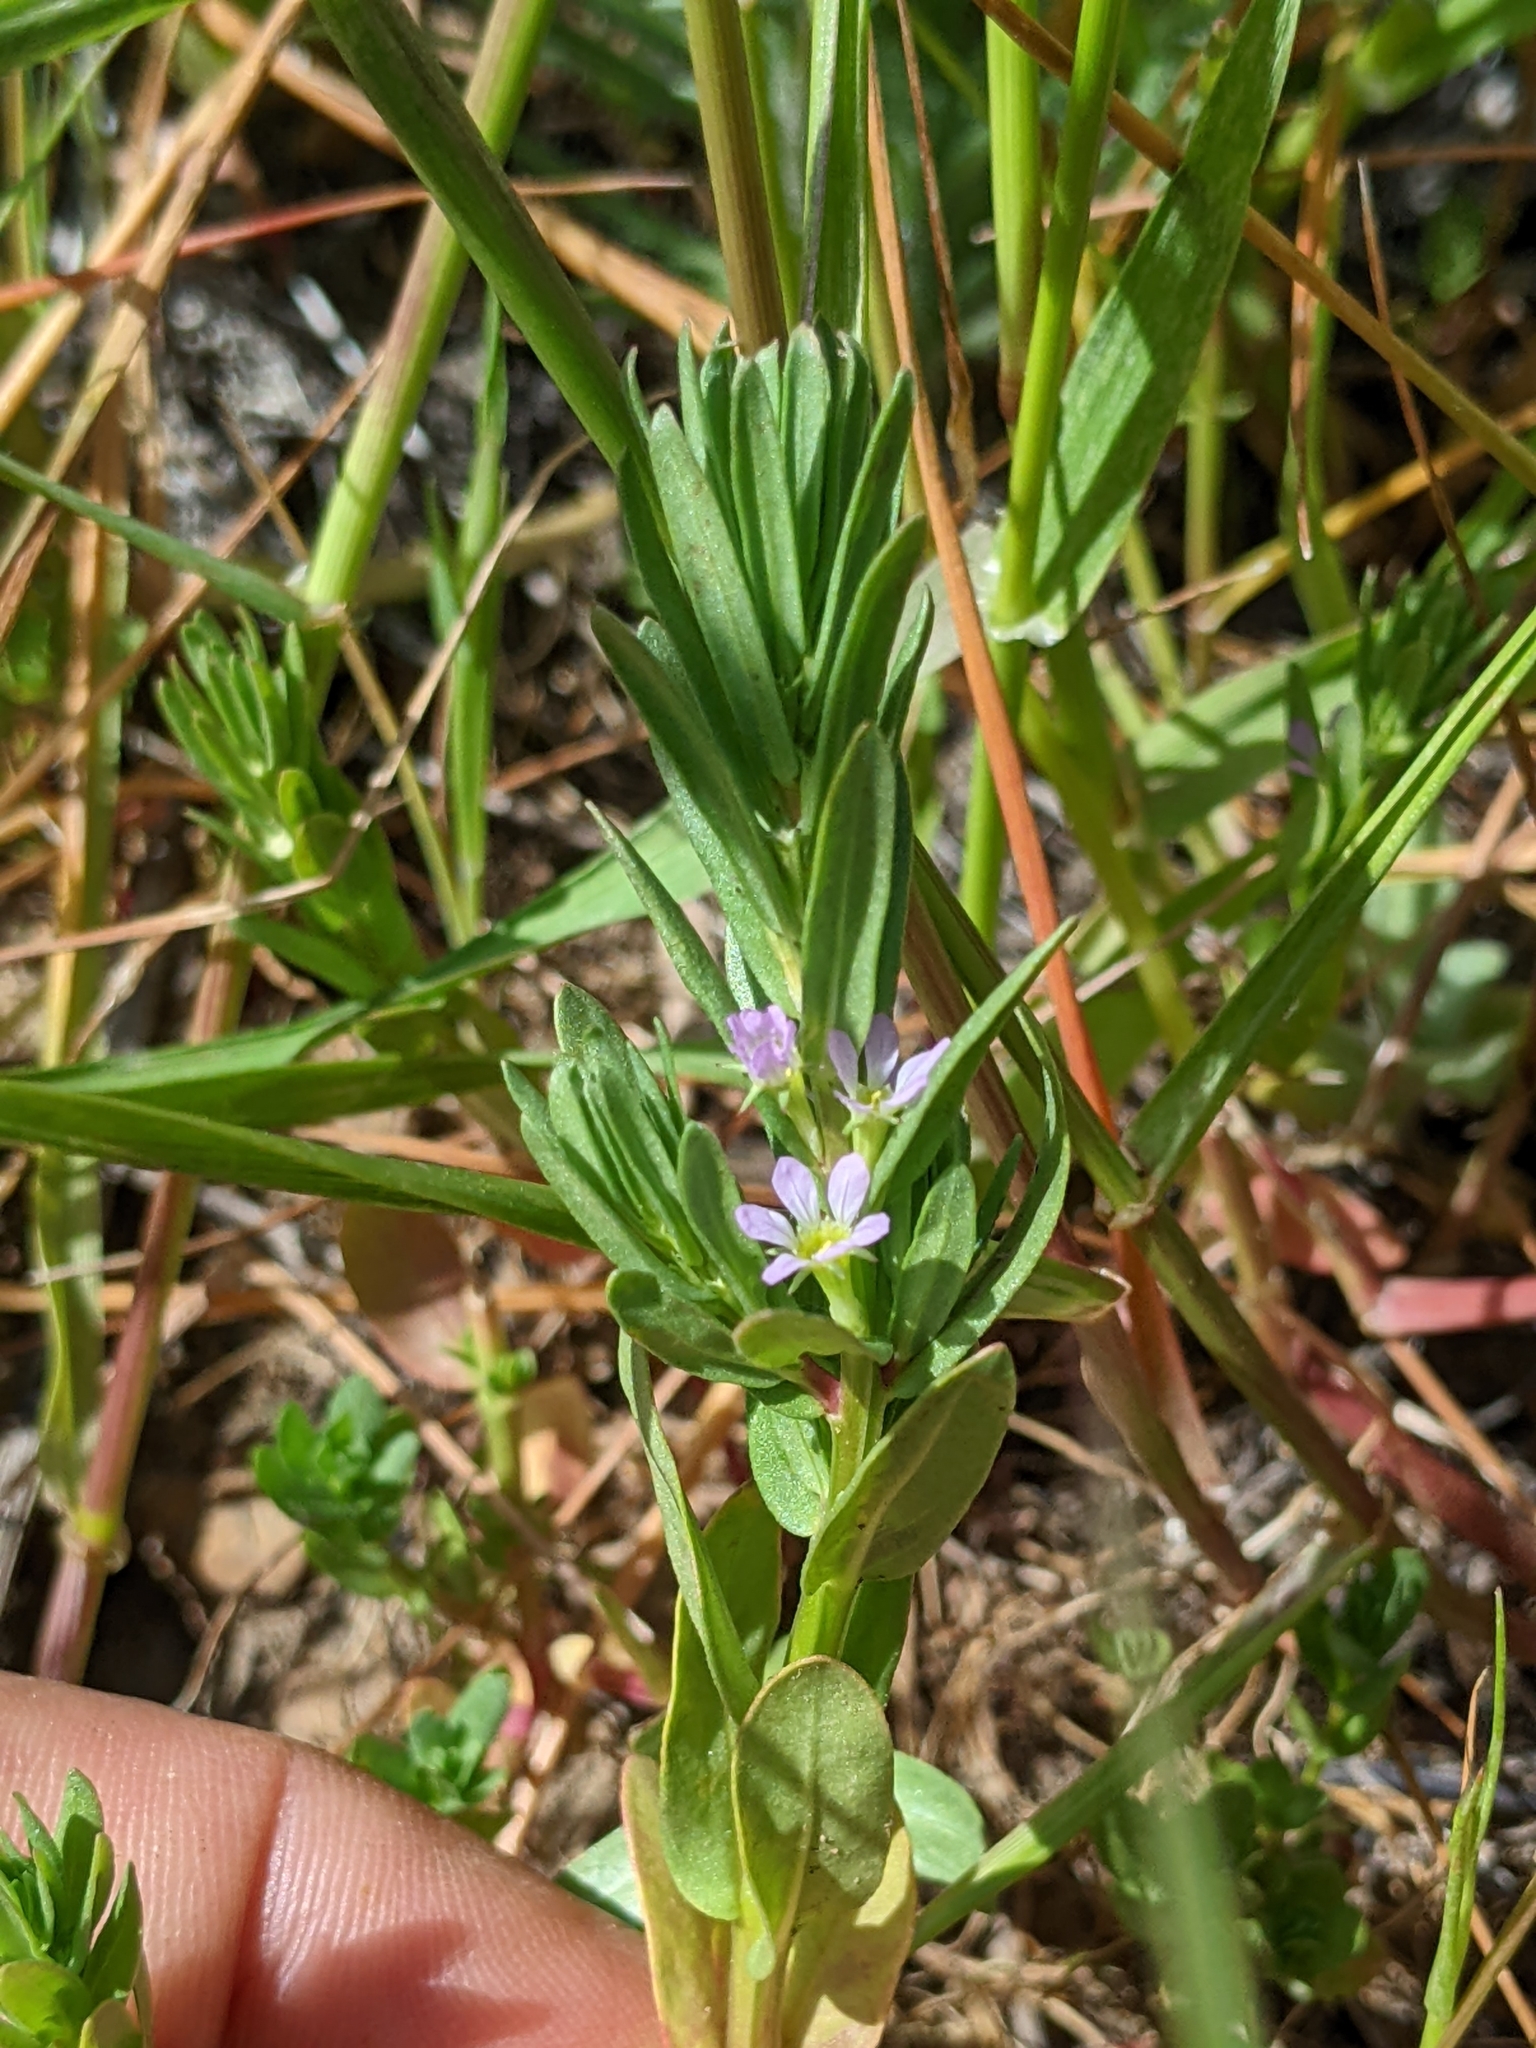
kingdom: Plantae
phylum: Tracheophyta
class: Magnoliopsida
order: Myrtales
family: Lythraceae
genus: Lythrum
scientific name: Lythrum hyssopifolia
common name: Grass-poly
